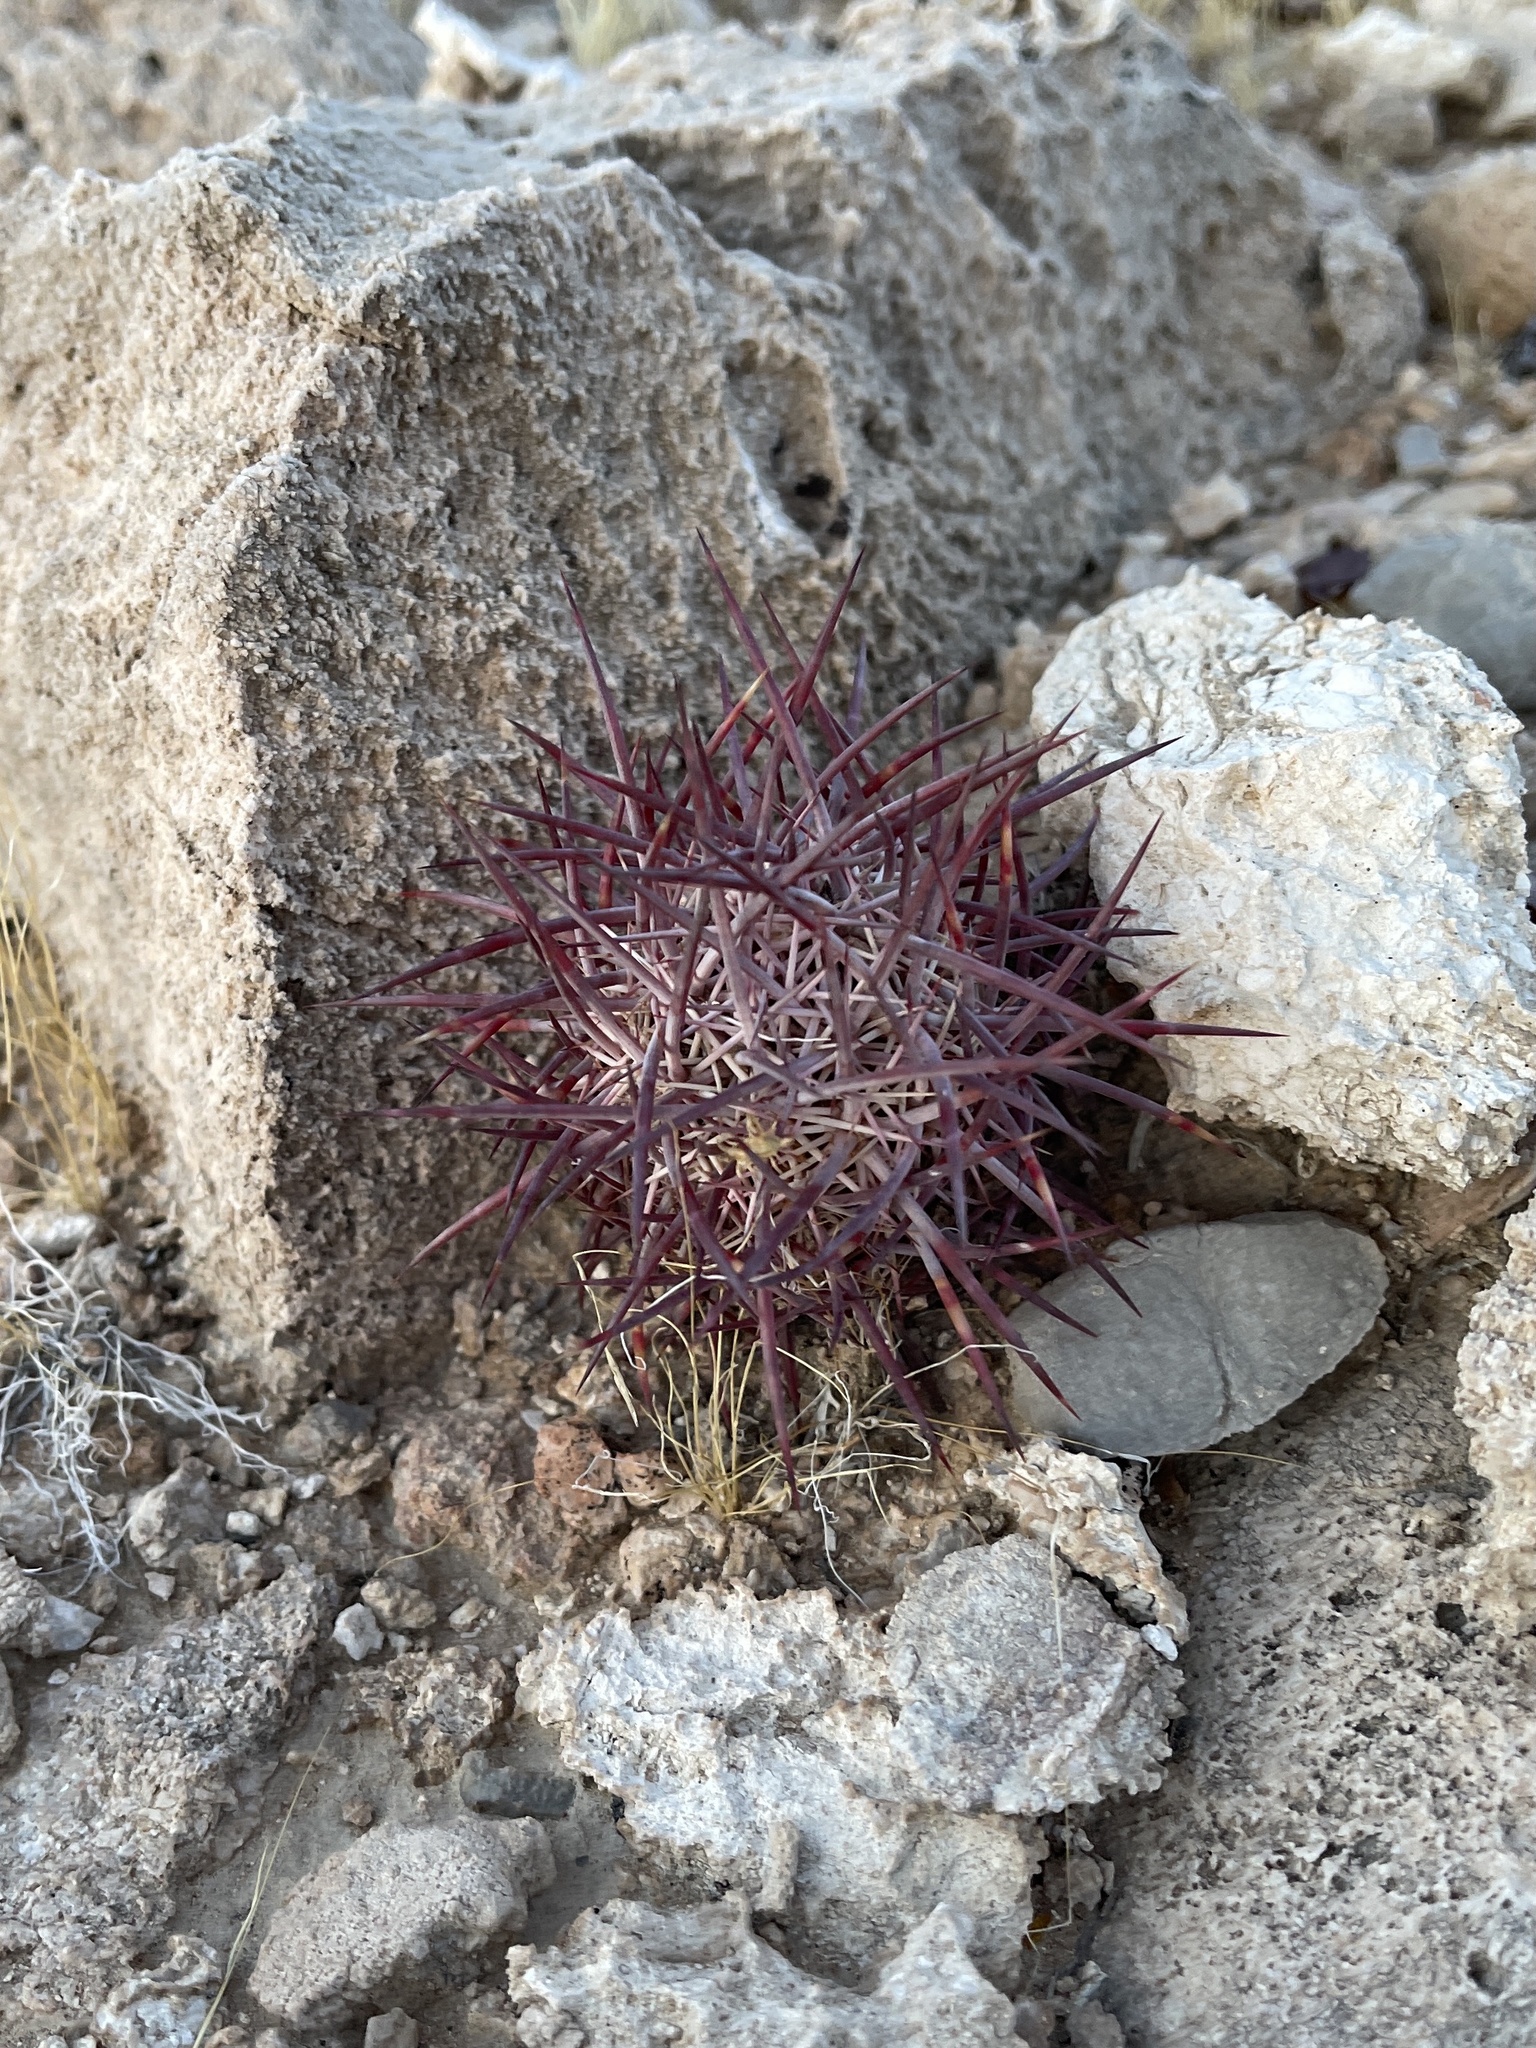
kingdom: Plantae
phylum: Tracheophyta
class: Magnoliopsida
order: Caryophyllales
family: Cactaceae
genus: Sclerocactus
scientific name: Sclerocactus johnsonii
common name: Eight-spine fishhook cactus
